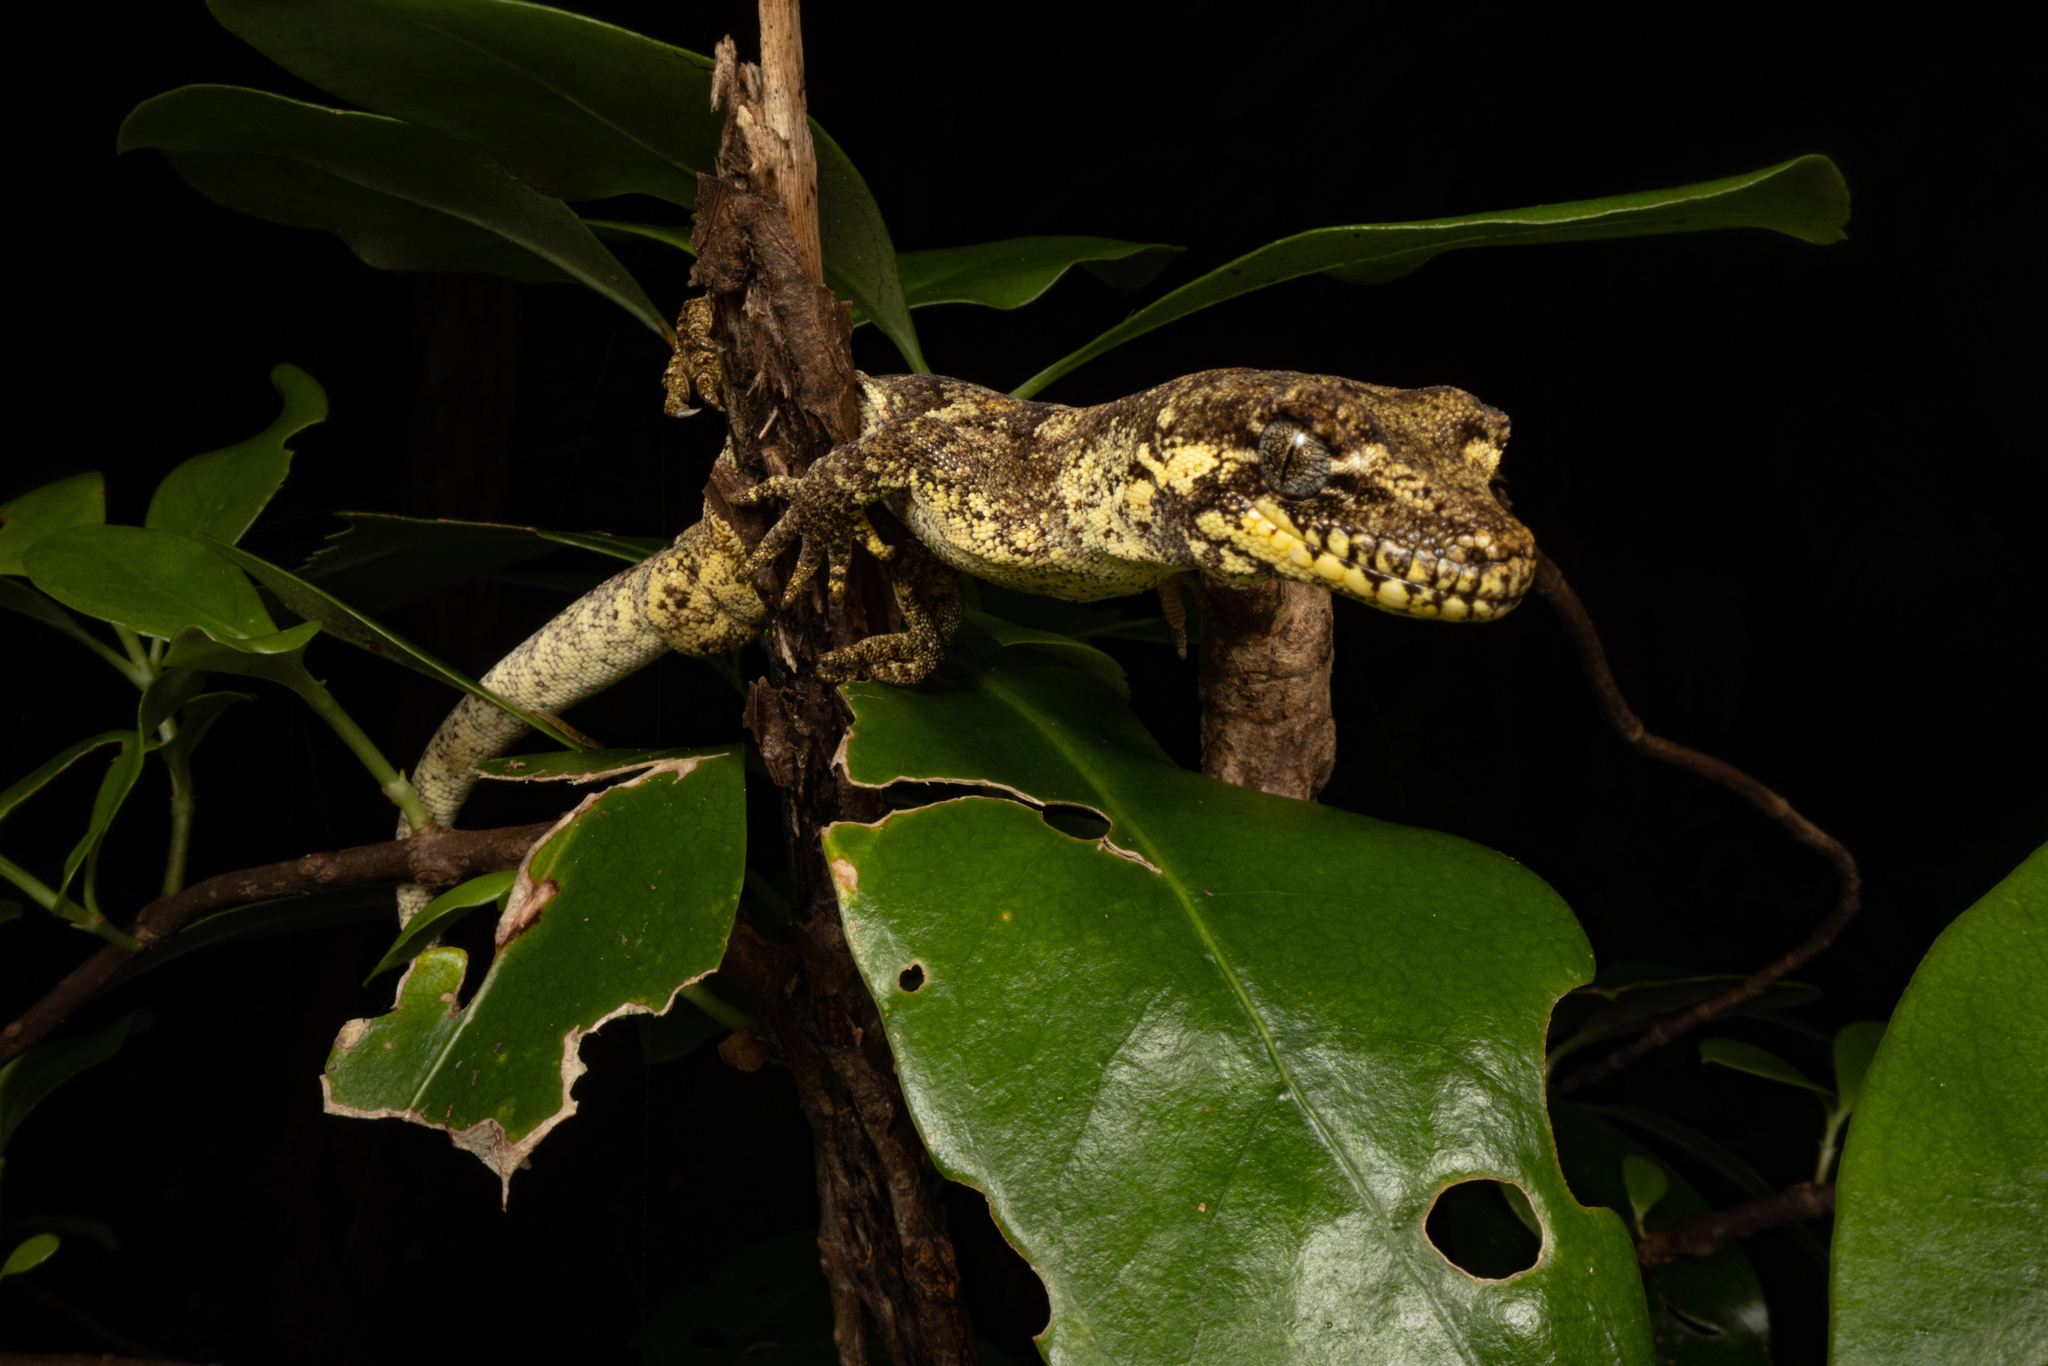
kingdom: Animalia
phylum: Chordata
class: Squamata
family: Diplodactylidae
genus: Mokopirirakau
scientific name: Mokopirirakau granulatus
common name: Forest gecko
